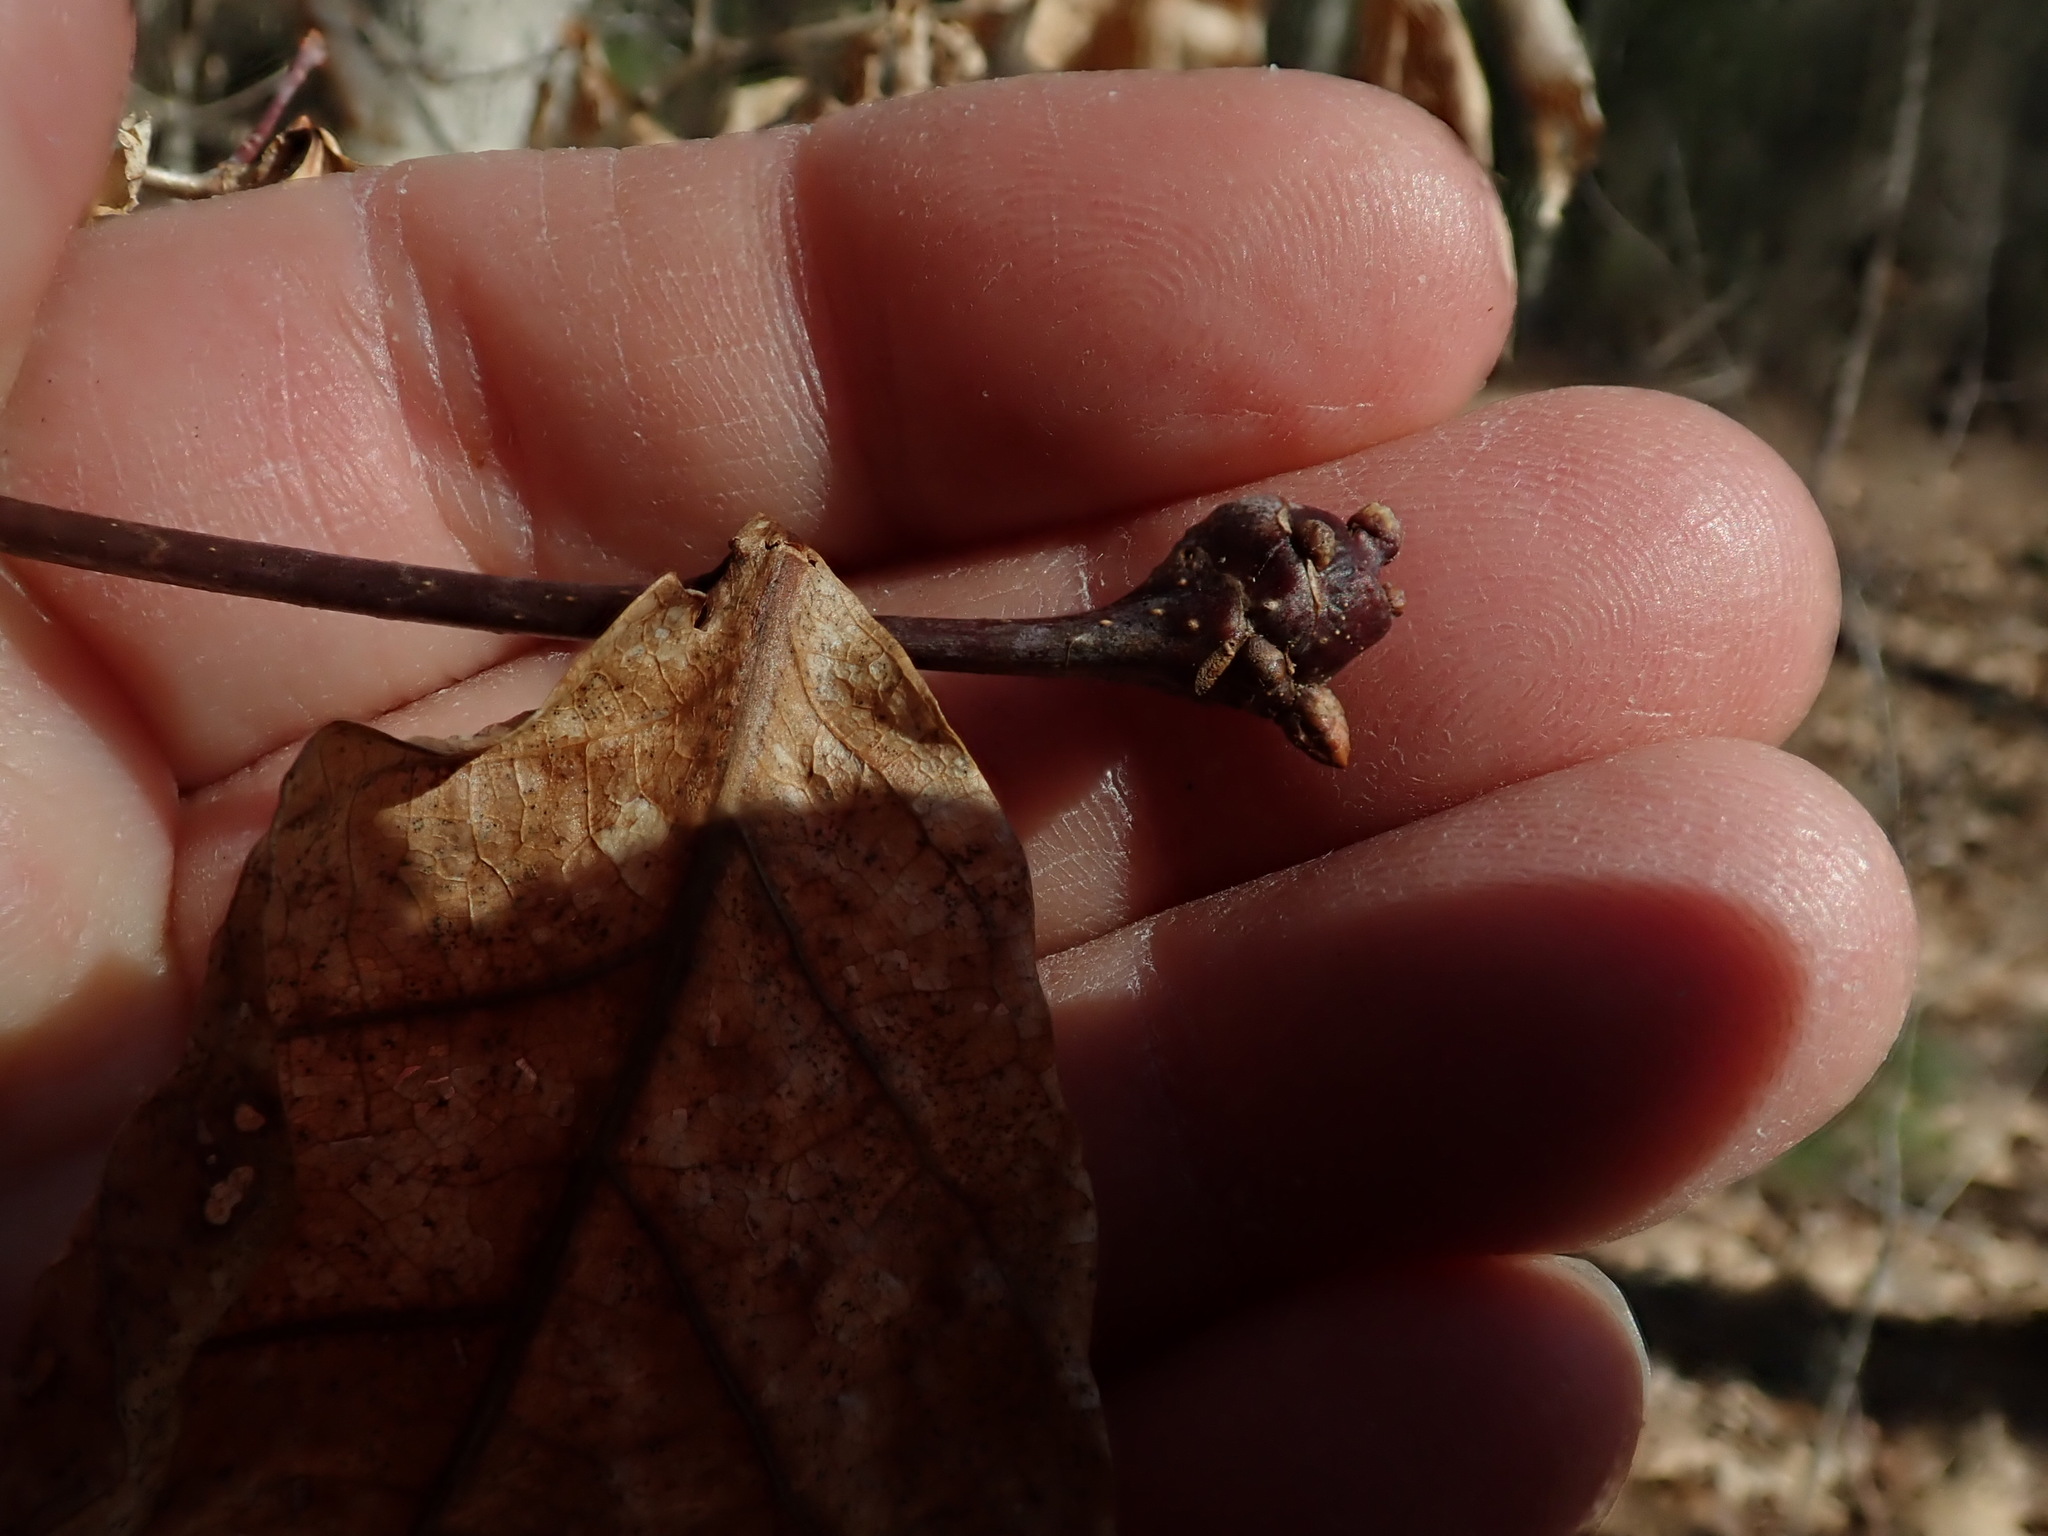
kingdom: Animalia
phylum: Arthropoda
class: Insecta
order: Hymenoptera
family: Cynipidae
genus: Callirhytis
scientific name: Callirhytis clavula
